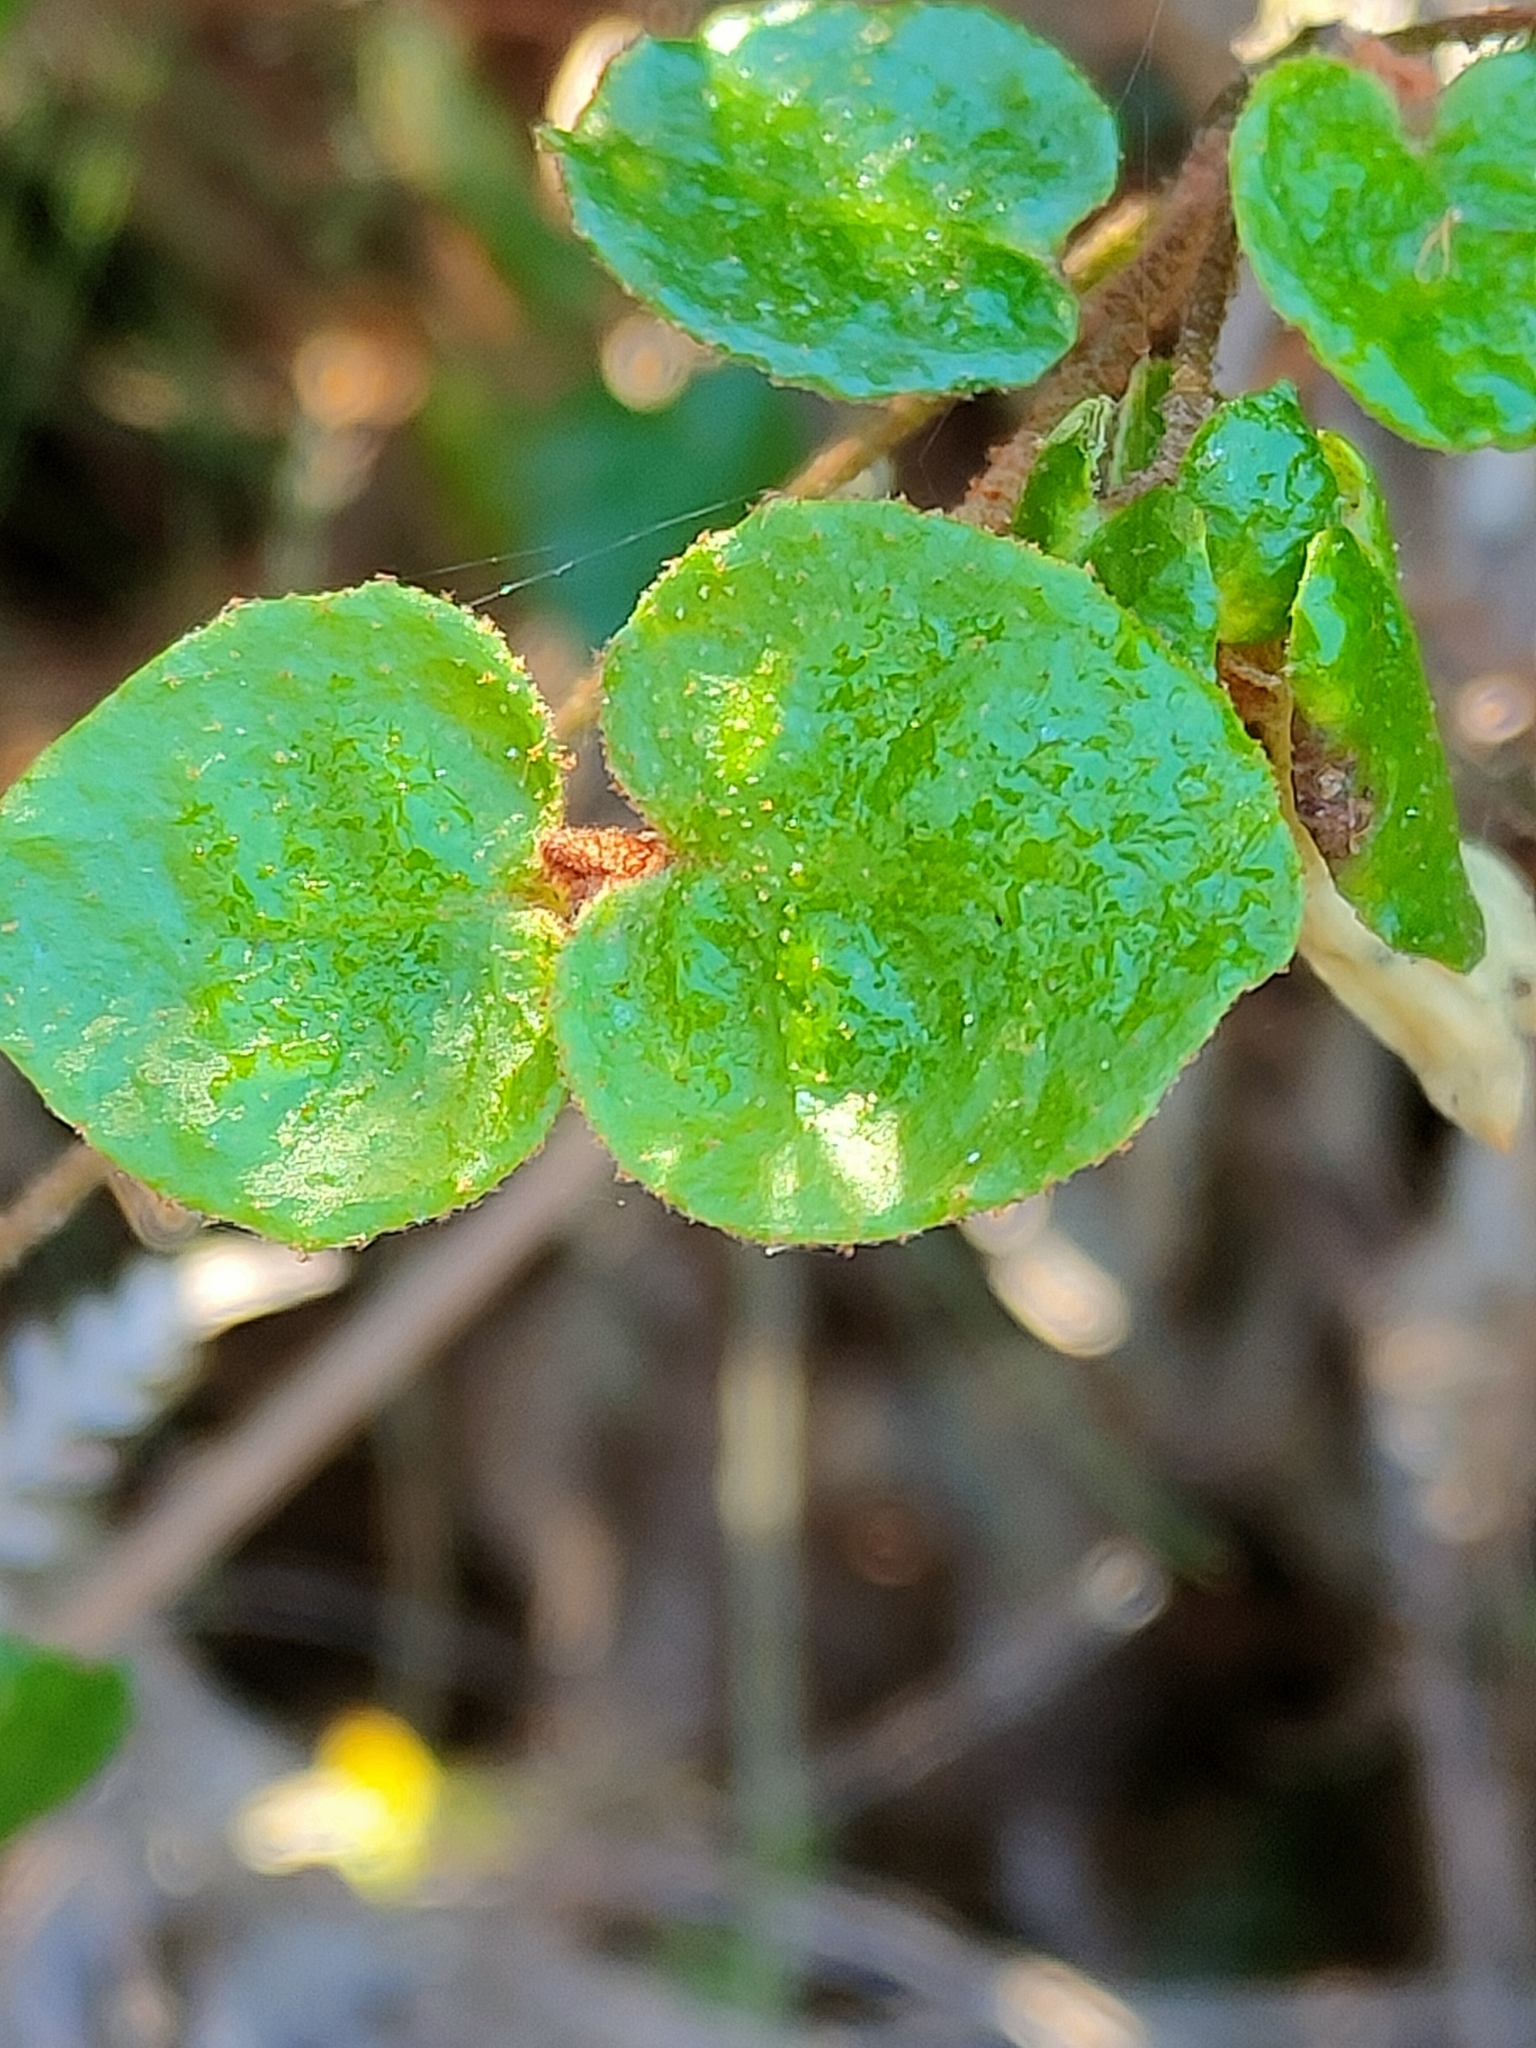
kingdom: Plantae
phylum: Tracheophyta
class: Magnoliopsida
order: Sapindales
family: Rutaceae
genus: Correa
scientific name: Correa reflexa
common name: Common correa
